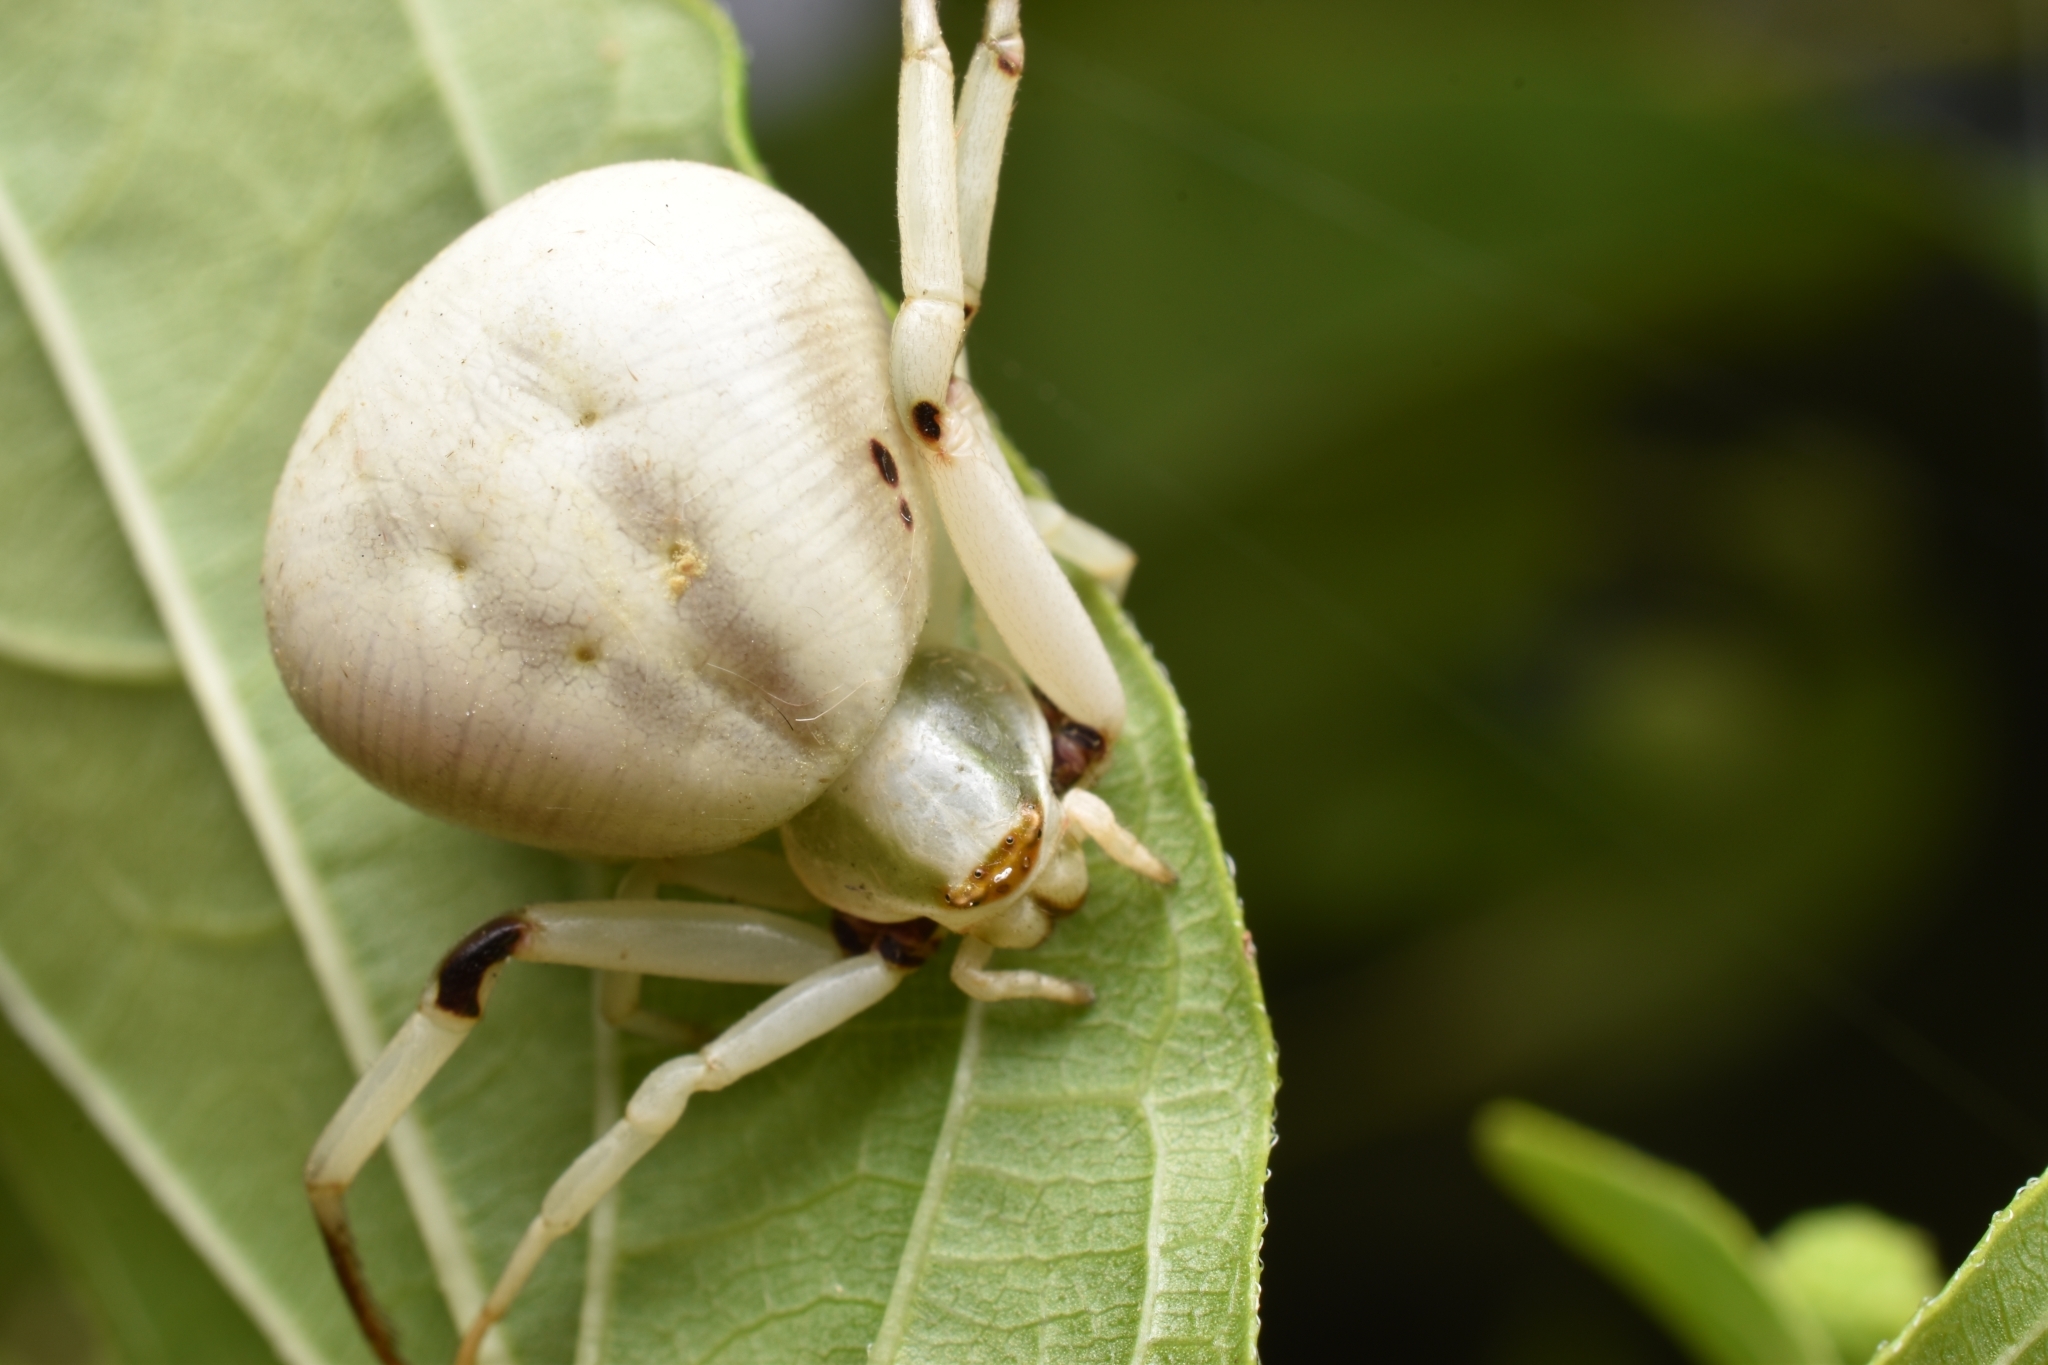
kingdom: Animalia
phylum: Arthropoda
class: Arachnida
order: Araneae
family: Thomisidae
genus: Misumenoides
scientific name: Misumenoides formosipes
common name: White-banded crab spider
